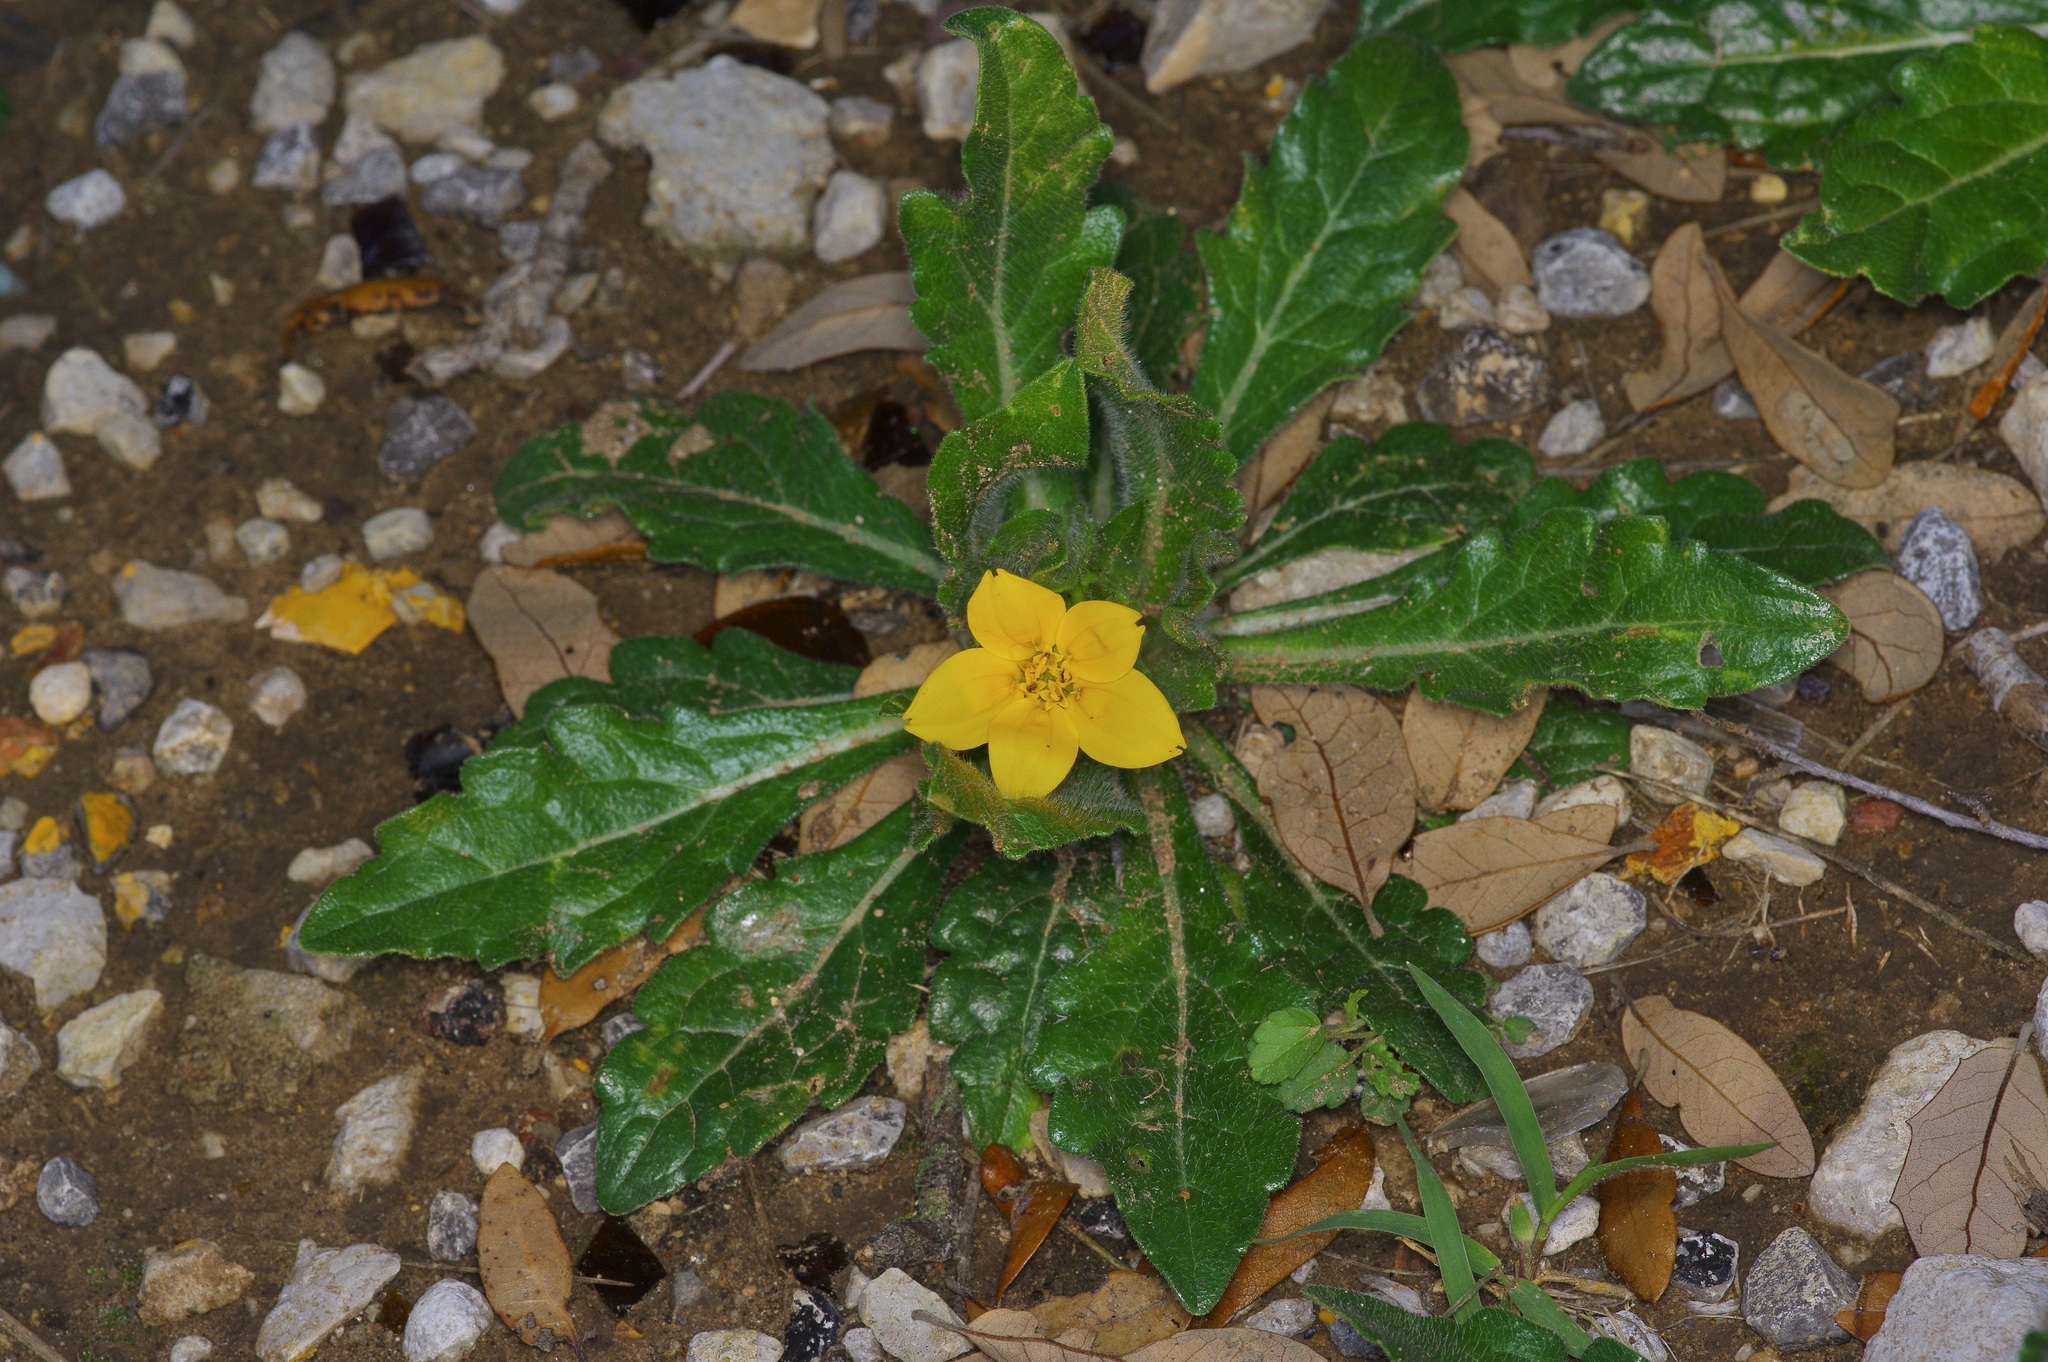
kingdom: Plantae
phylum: Tracheophyta
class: Magnoliopsida
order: Asterales
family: Asteraceae
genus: Lindheimera
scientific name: Lindheimera texana
